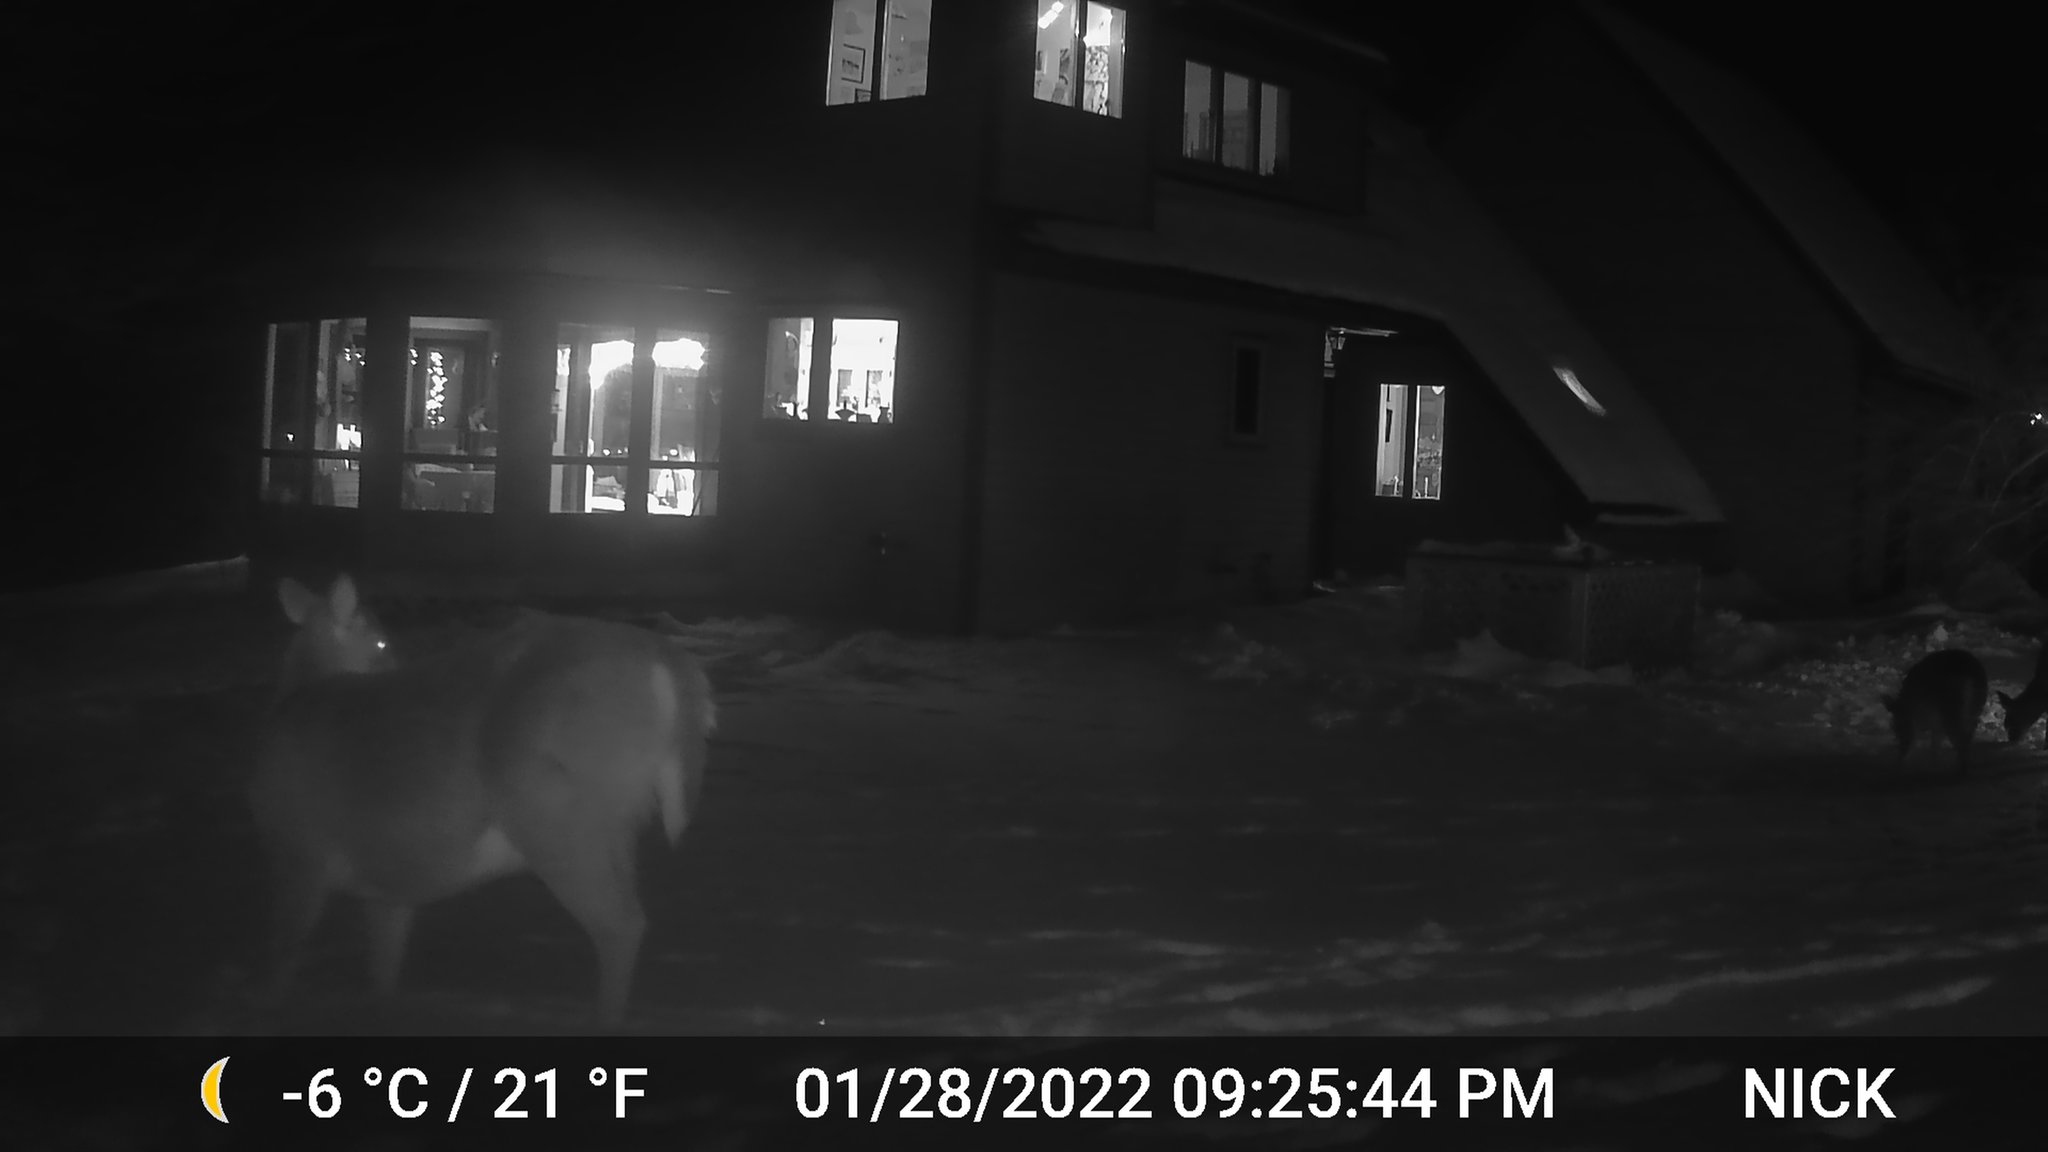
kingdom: Animalia
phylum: Chordata
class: Mammalia
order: Artiodactyla
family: Cervidae
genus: Odocoileus
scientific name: Odocoileus virginianus
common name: White-tailed deer
